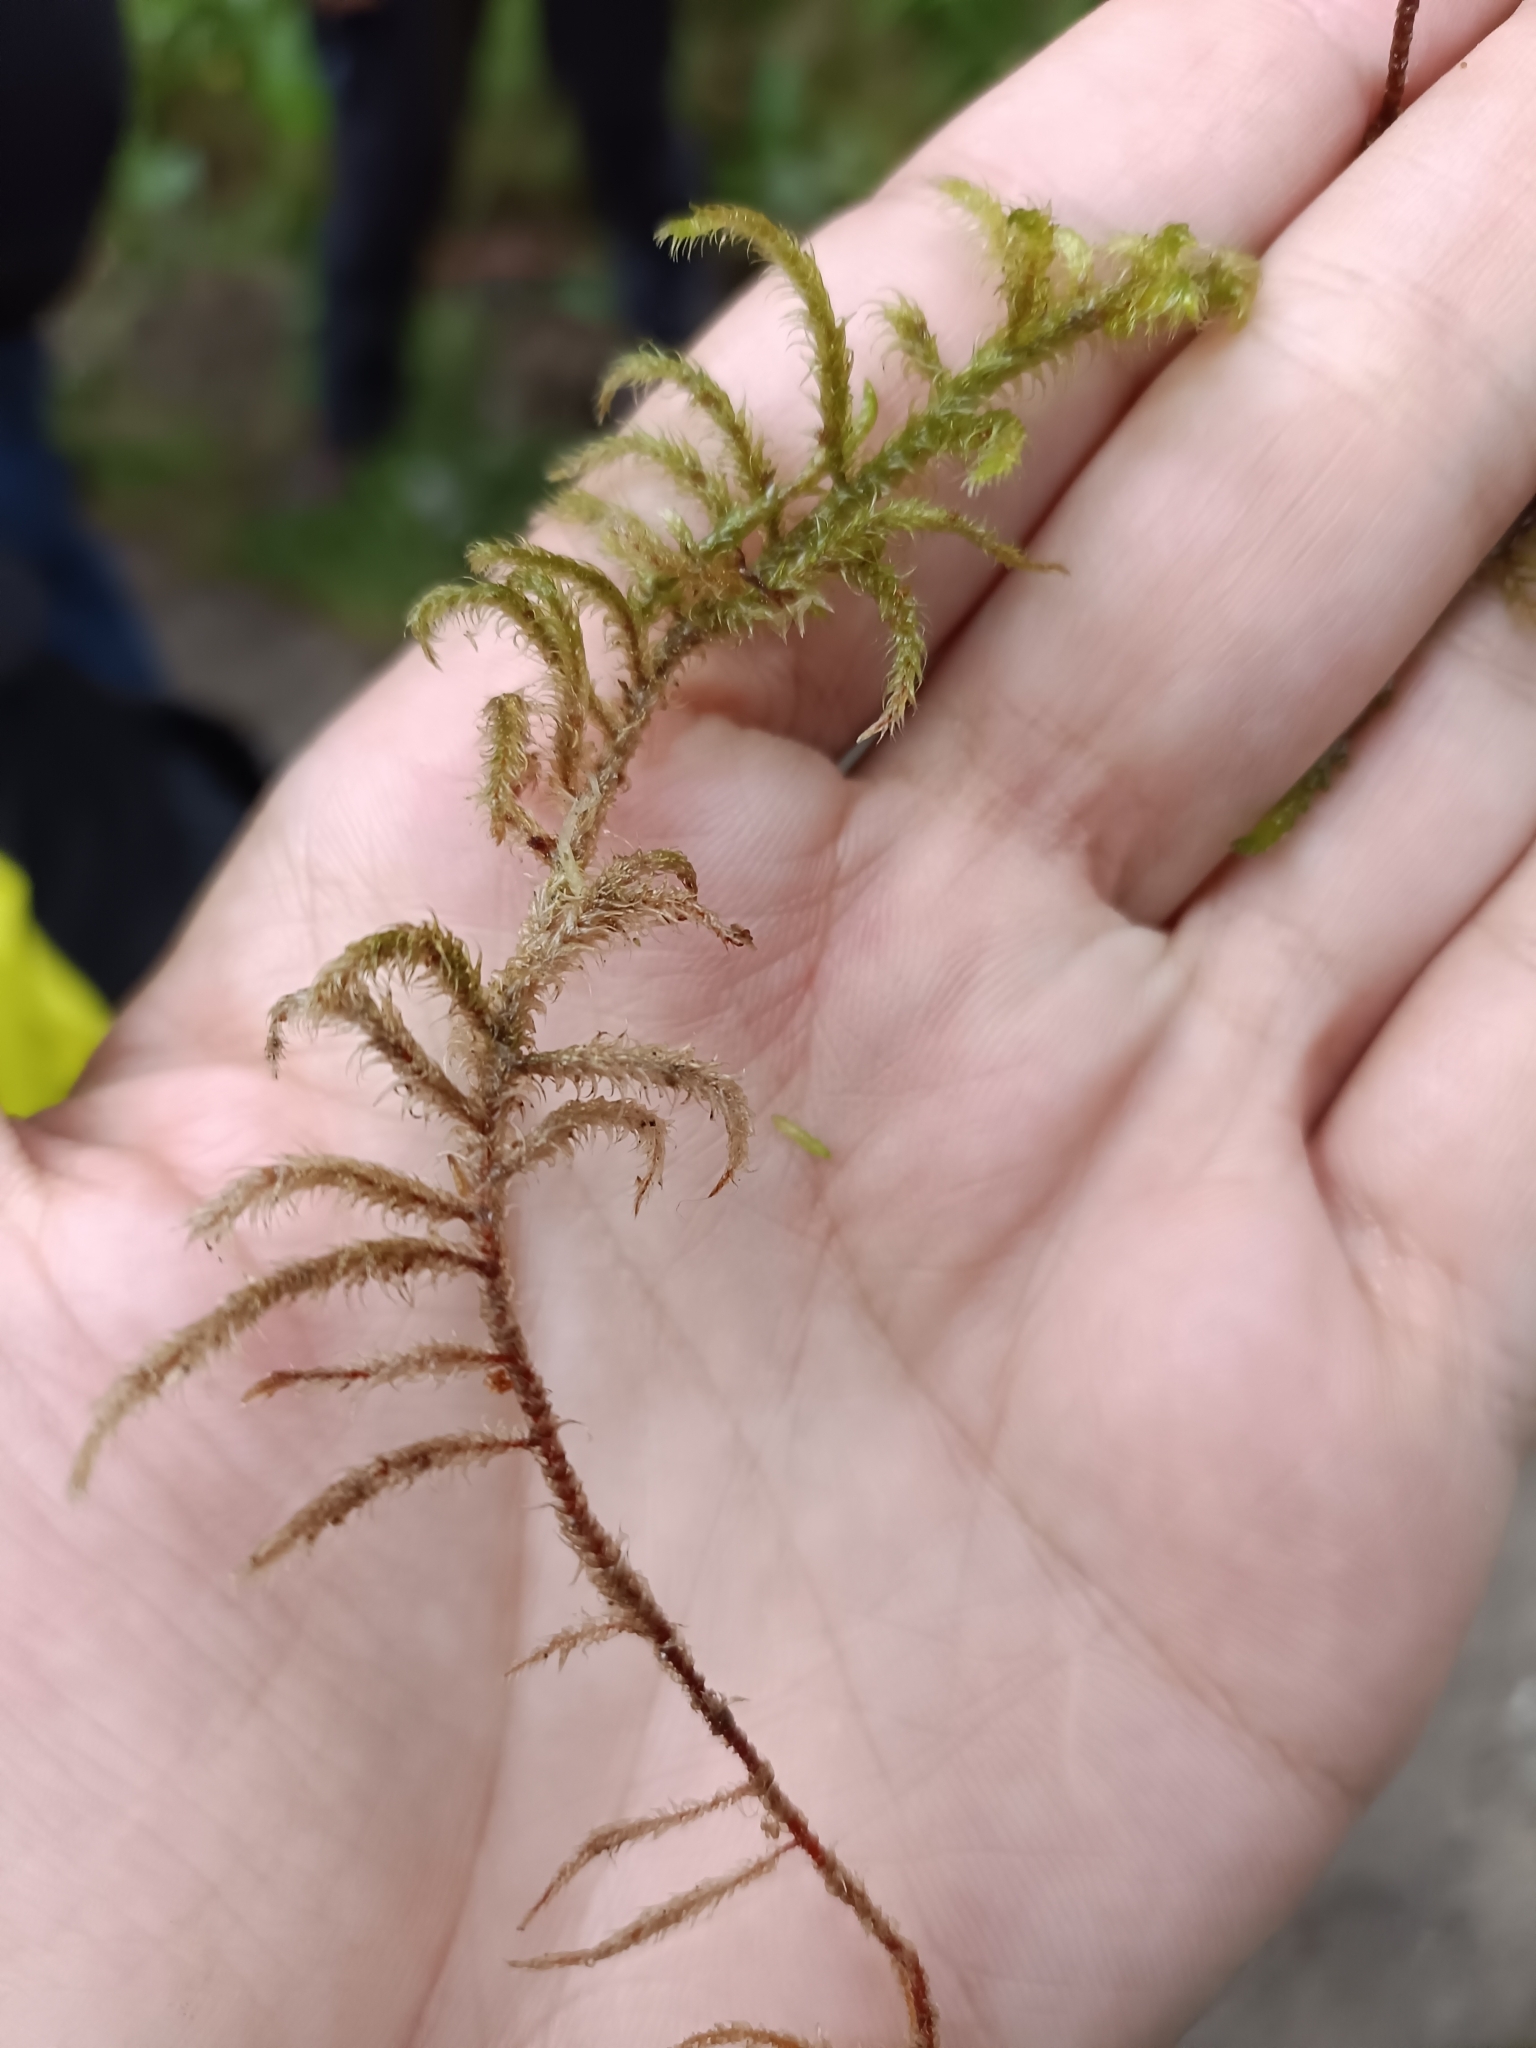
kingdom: Plantae
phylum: Bryophyta
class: Bryopsida
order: Hypnales
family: Hylocomiaceae
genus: Rhytidiadelphus
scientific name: Rhytidiadelphus loreus
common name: Lanky moss
